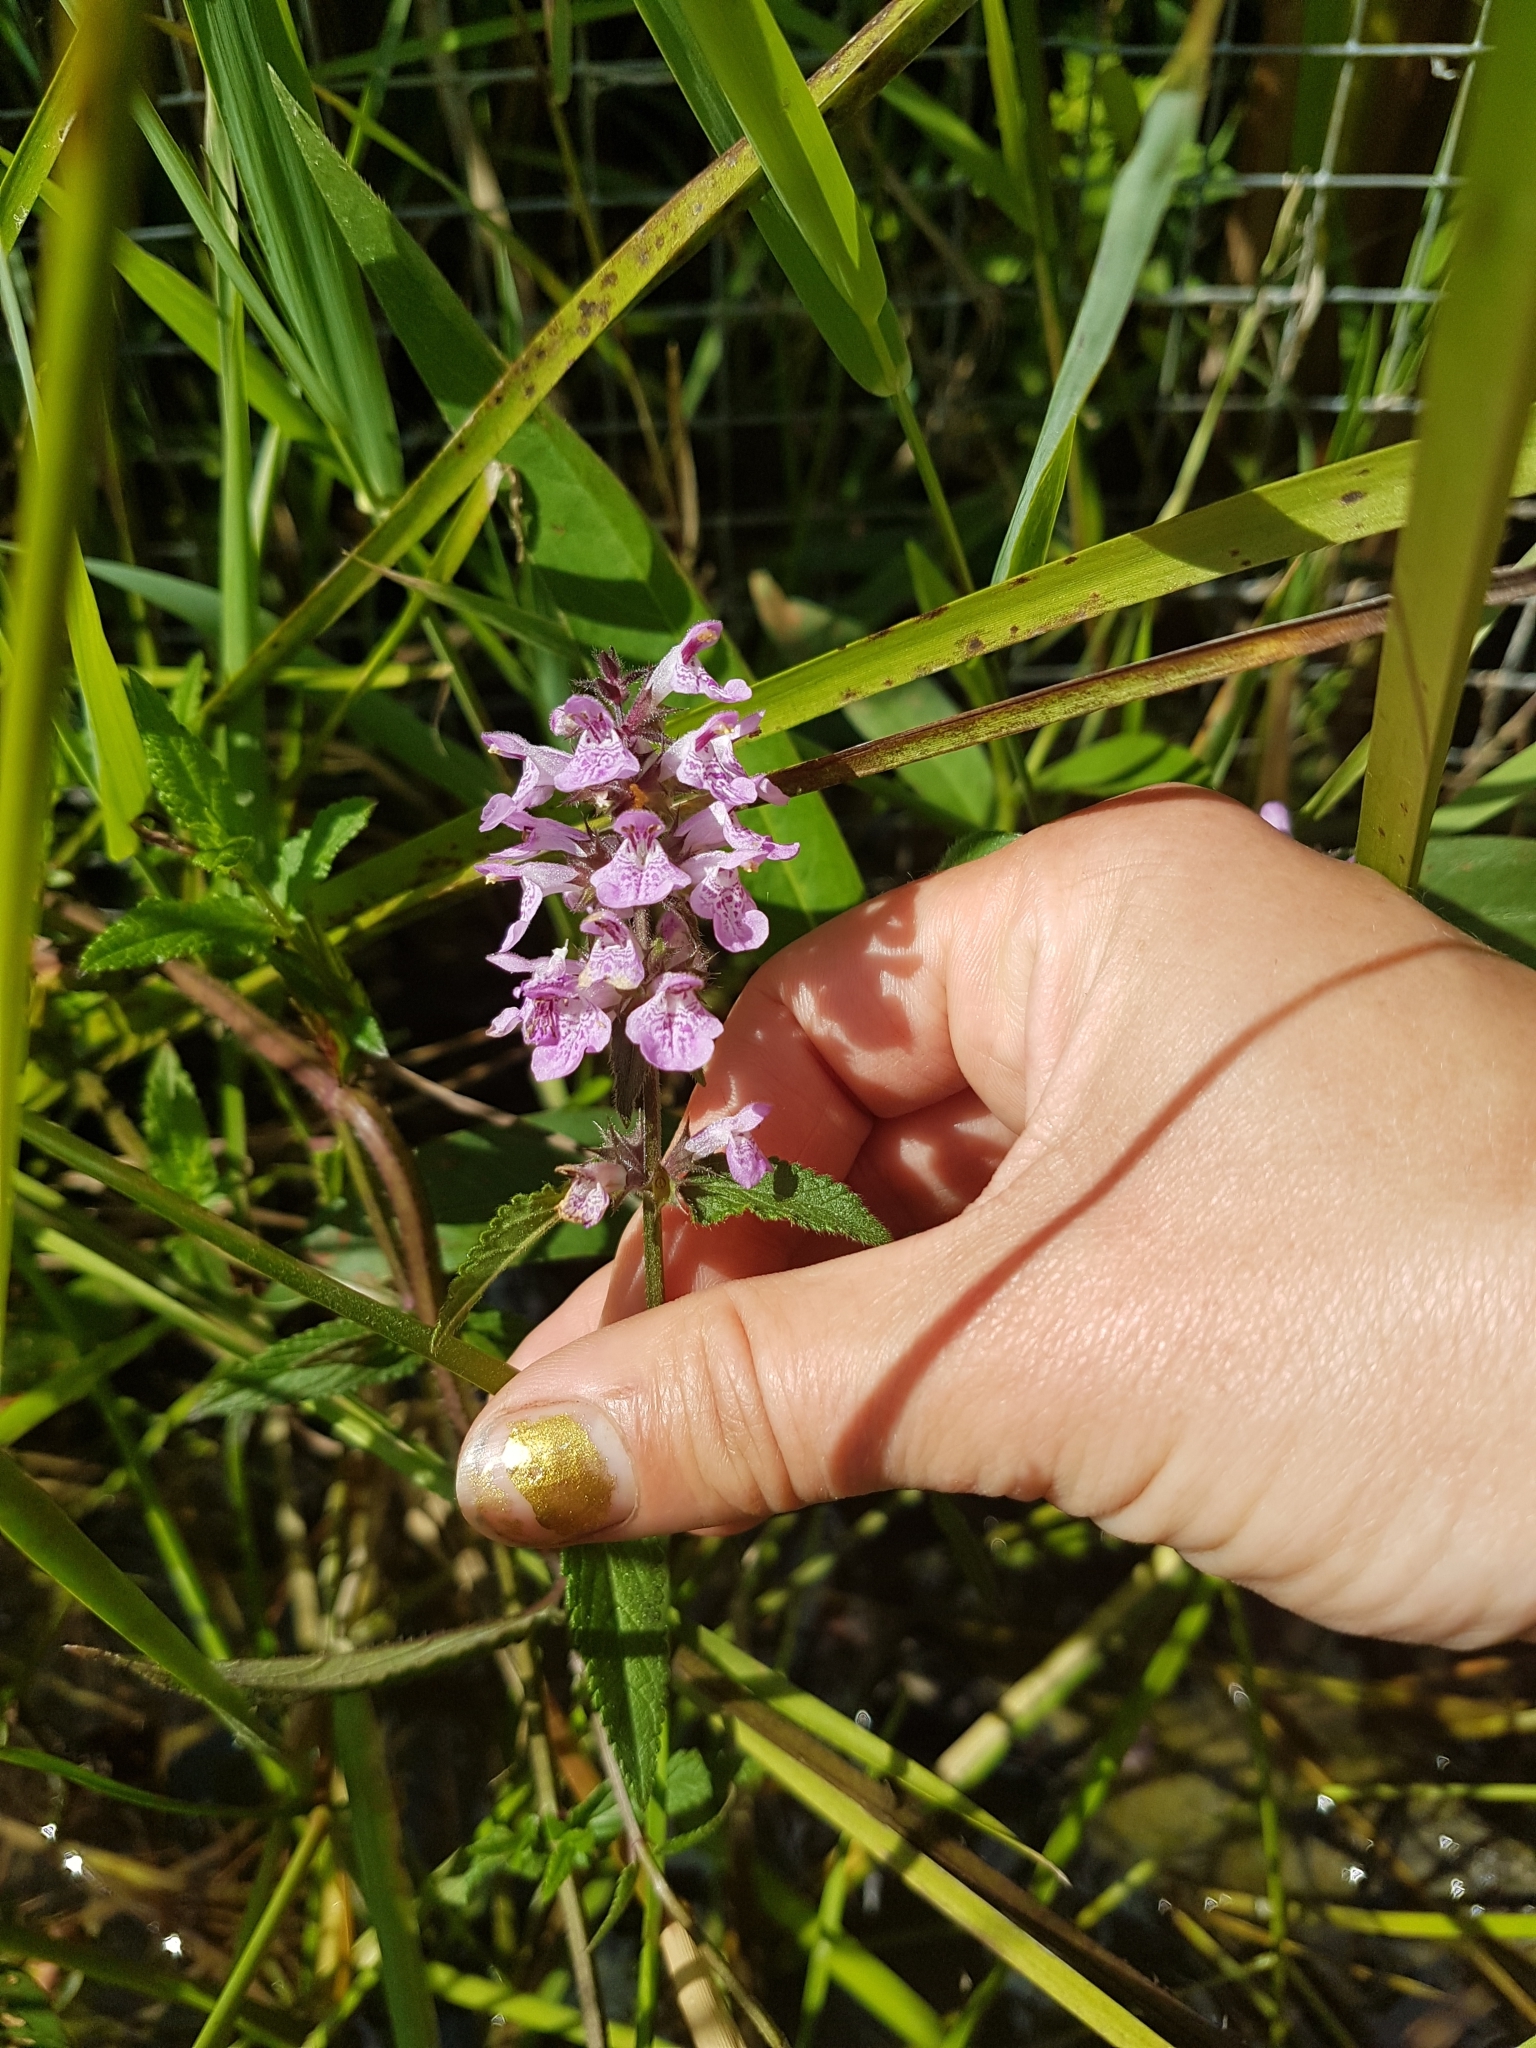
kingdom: Plantae
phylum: Tracheophyta
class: Magnoliopsida
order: Lamiales
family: Lamiaceae
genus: Stachys
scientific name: Stachys palustris
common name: Marsh woundwort
